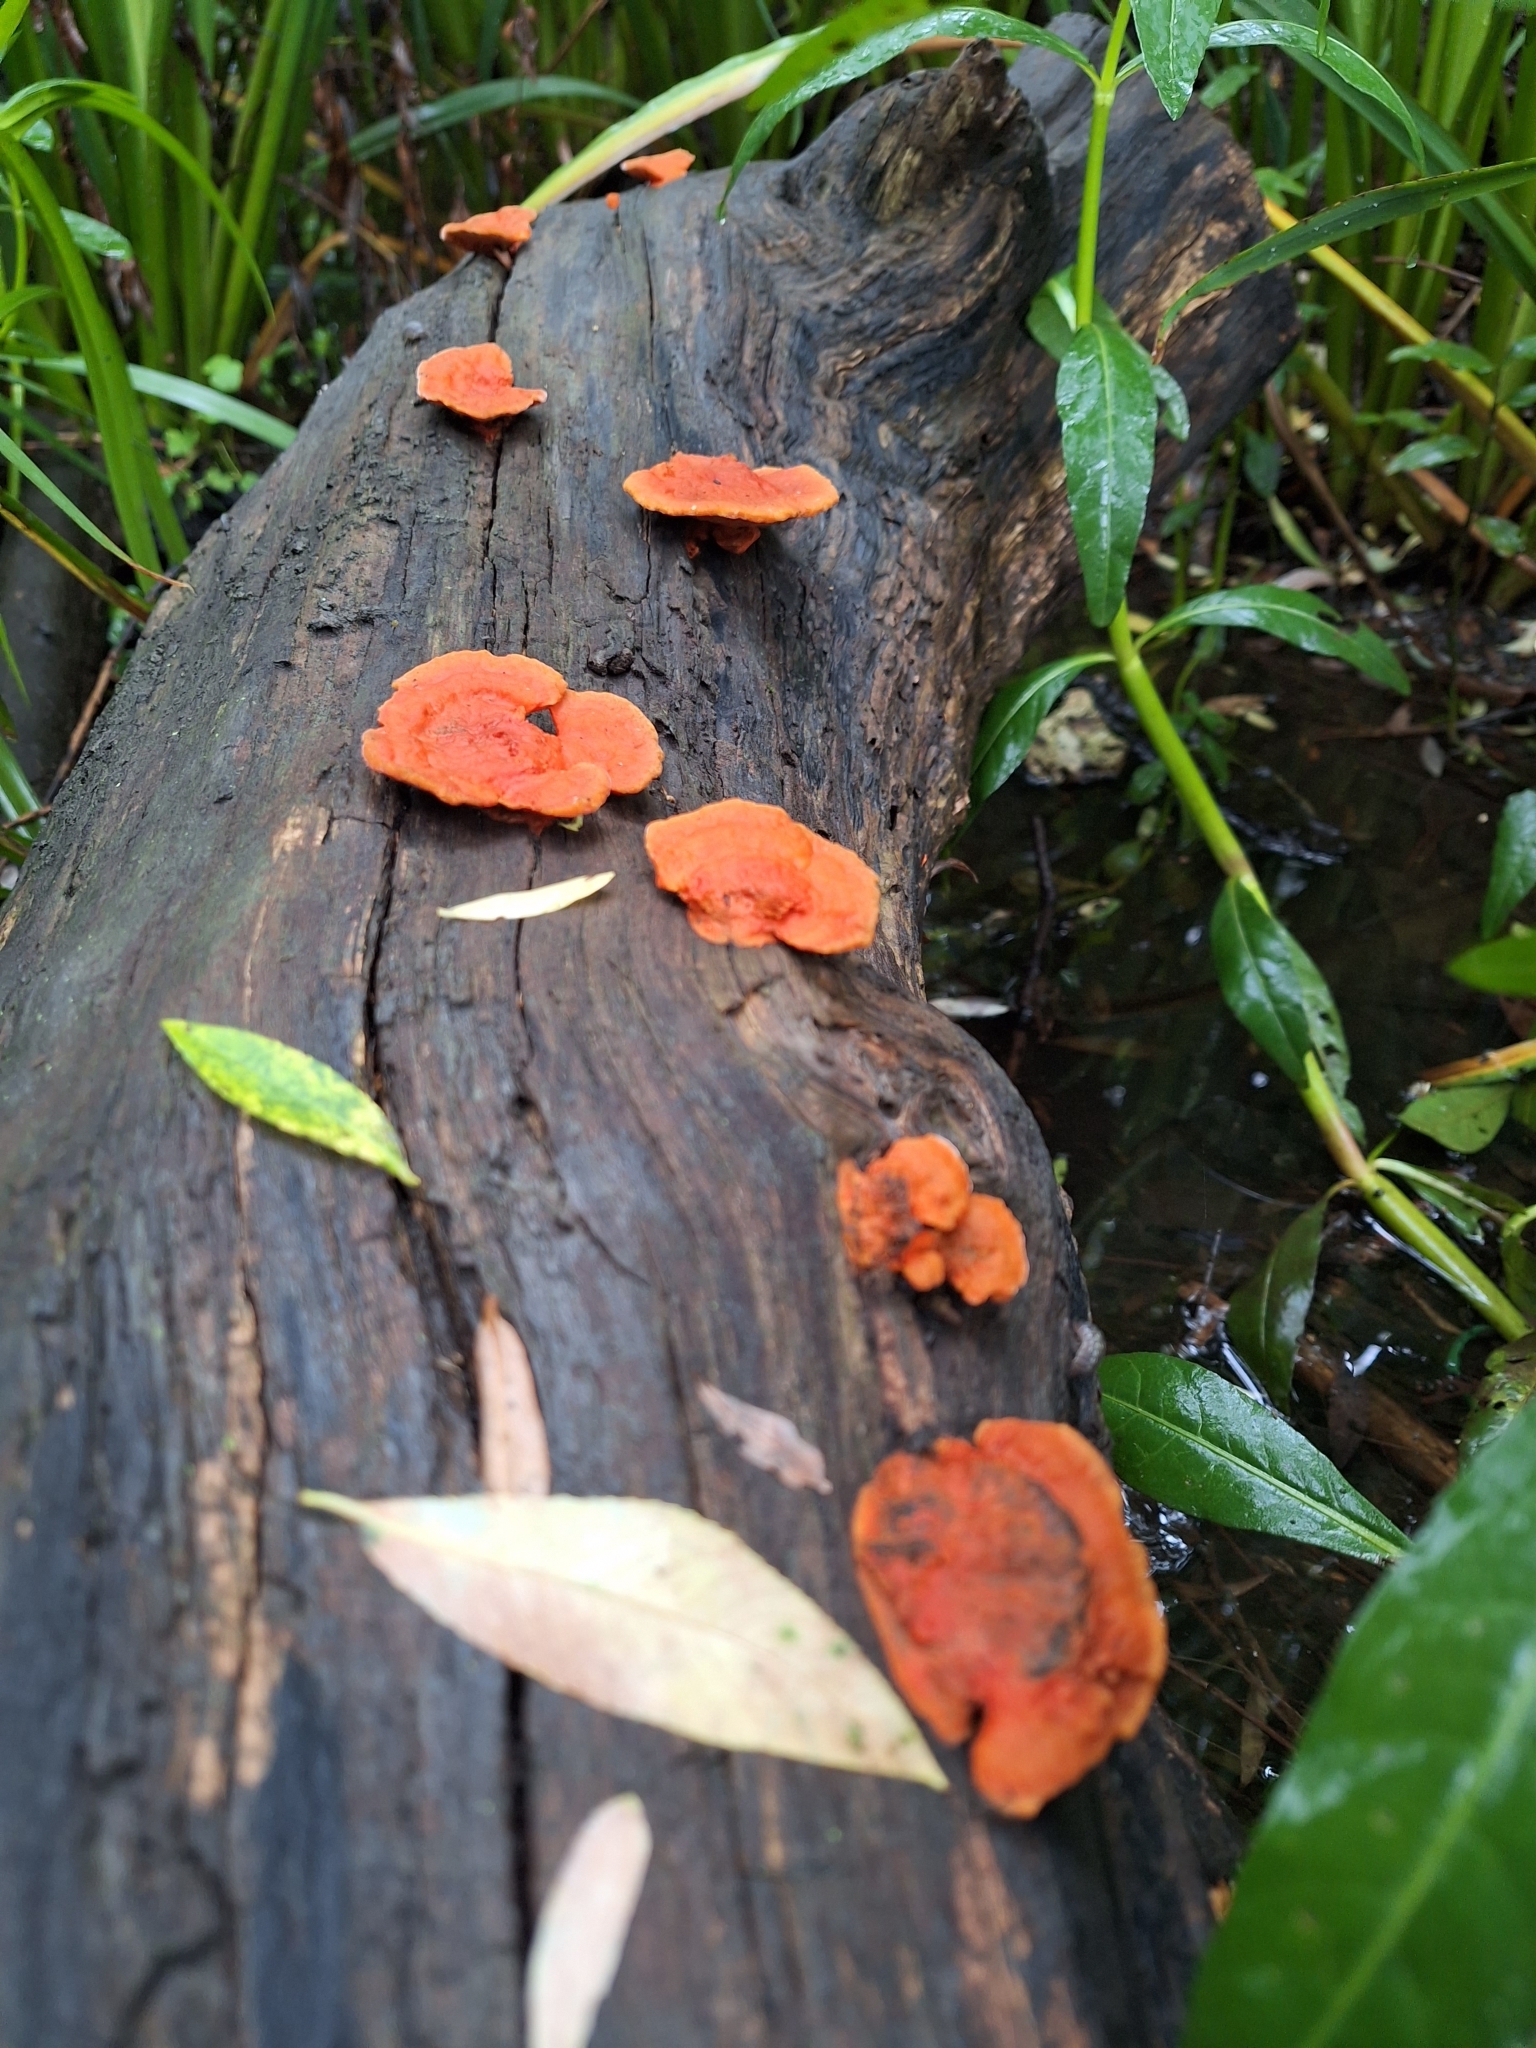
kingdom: Fungi
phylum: Basidiomycota
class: Agaricomycetes
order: Polyporales
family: Polyporaceae
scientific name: Polyporaceae
